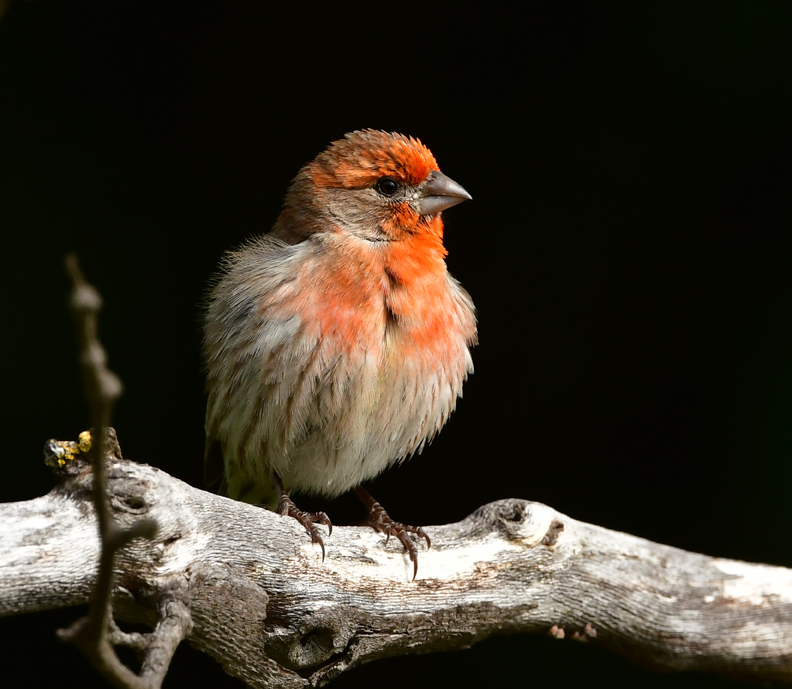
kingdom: Animalia
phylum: Chordata
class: Aves
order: Passeriformes
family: Fringillidae
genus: Haemorhous
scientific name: Haemorhous mexicanus
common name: House finch
